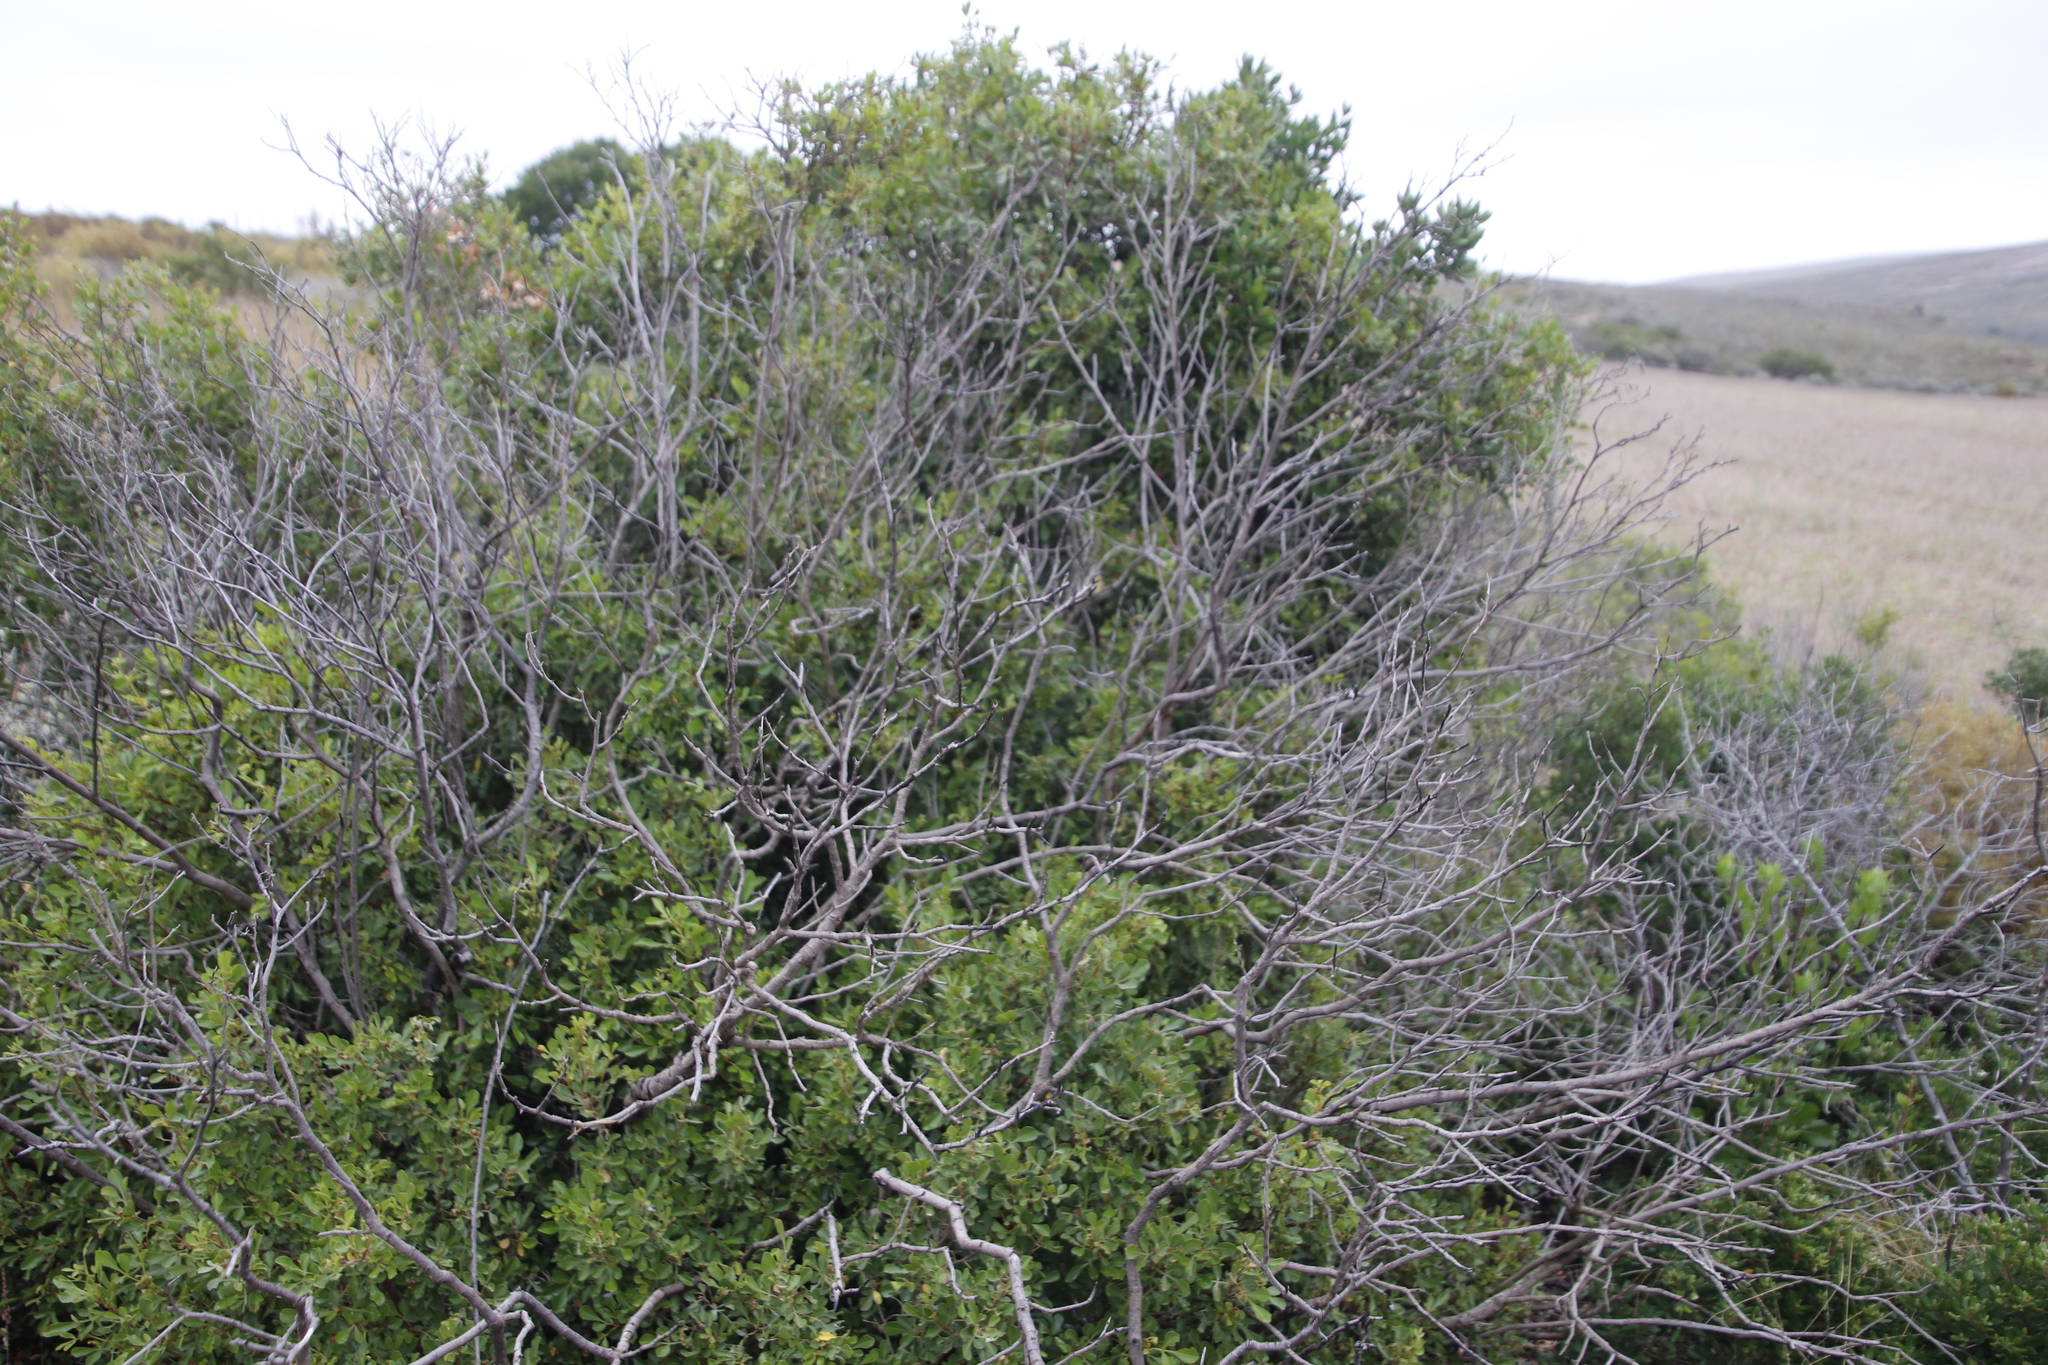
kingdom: Plantae
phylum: Tracheophyta
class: Magnoliopsida
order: Sapindales
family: Anacardiaceae
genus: Searsia
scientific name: Searsia pallens
